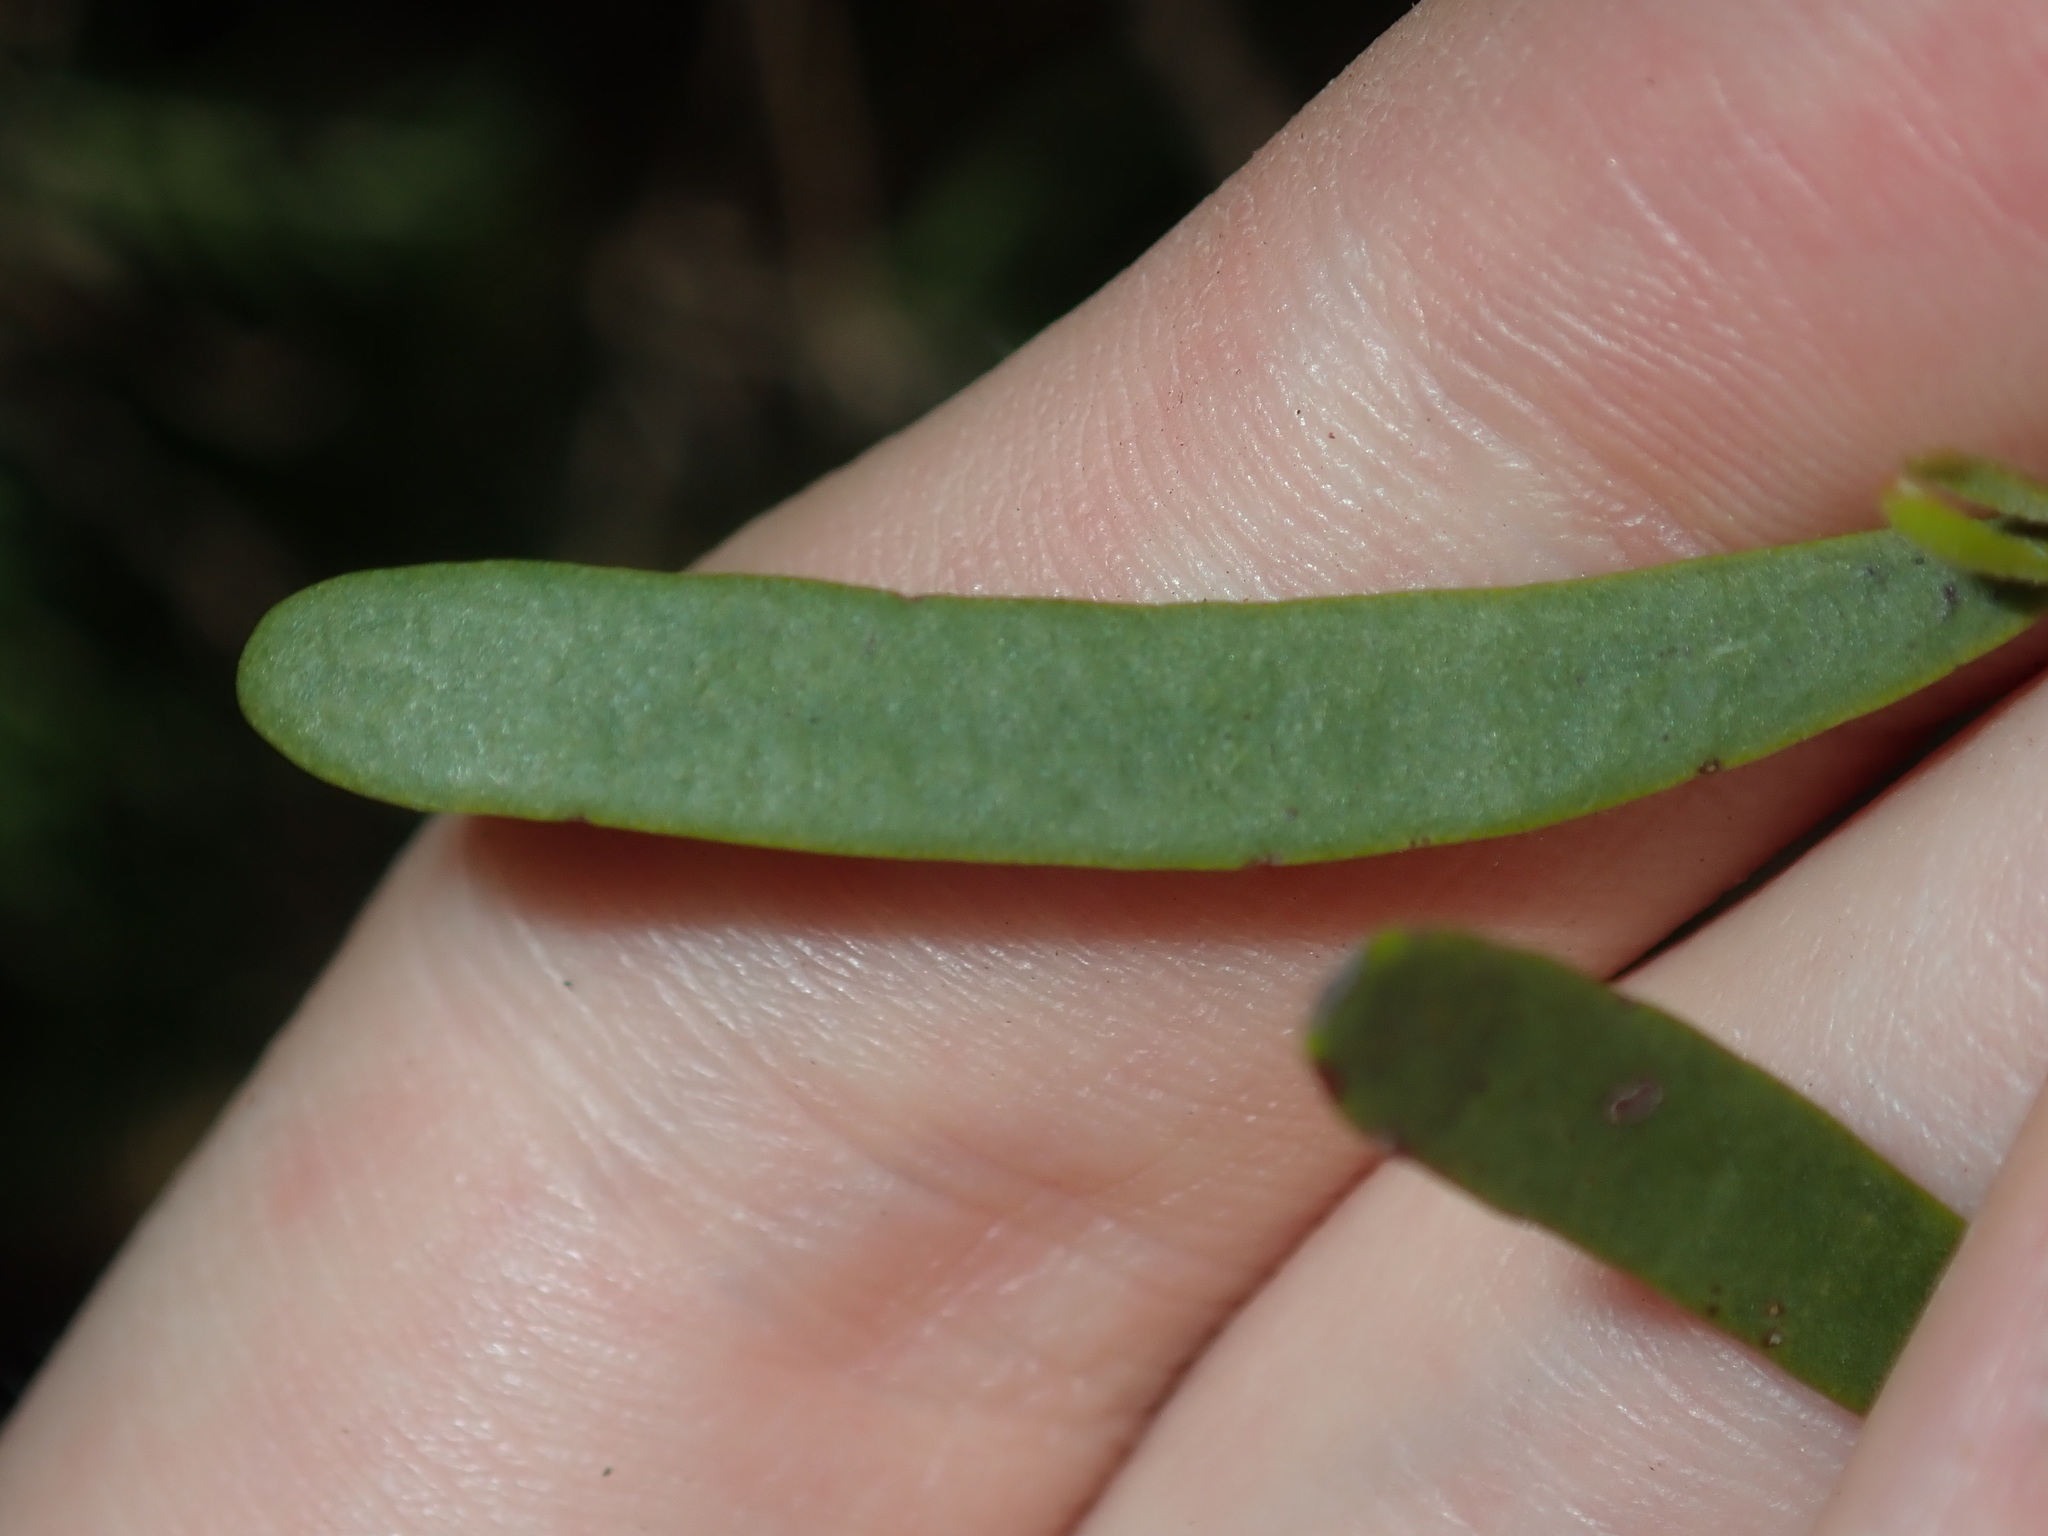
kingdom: Plantae
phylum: Tracheophyta
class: Magnoliopsida
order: Santalales
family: Loranthaceae
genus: Amyema
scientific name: Amyema gaudichaudii
